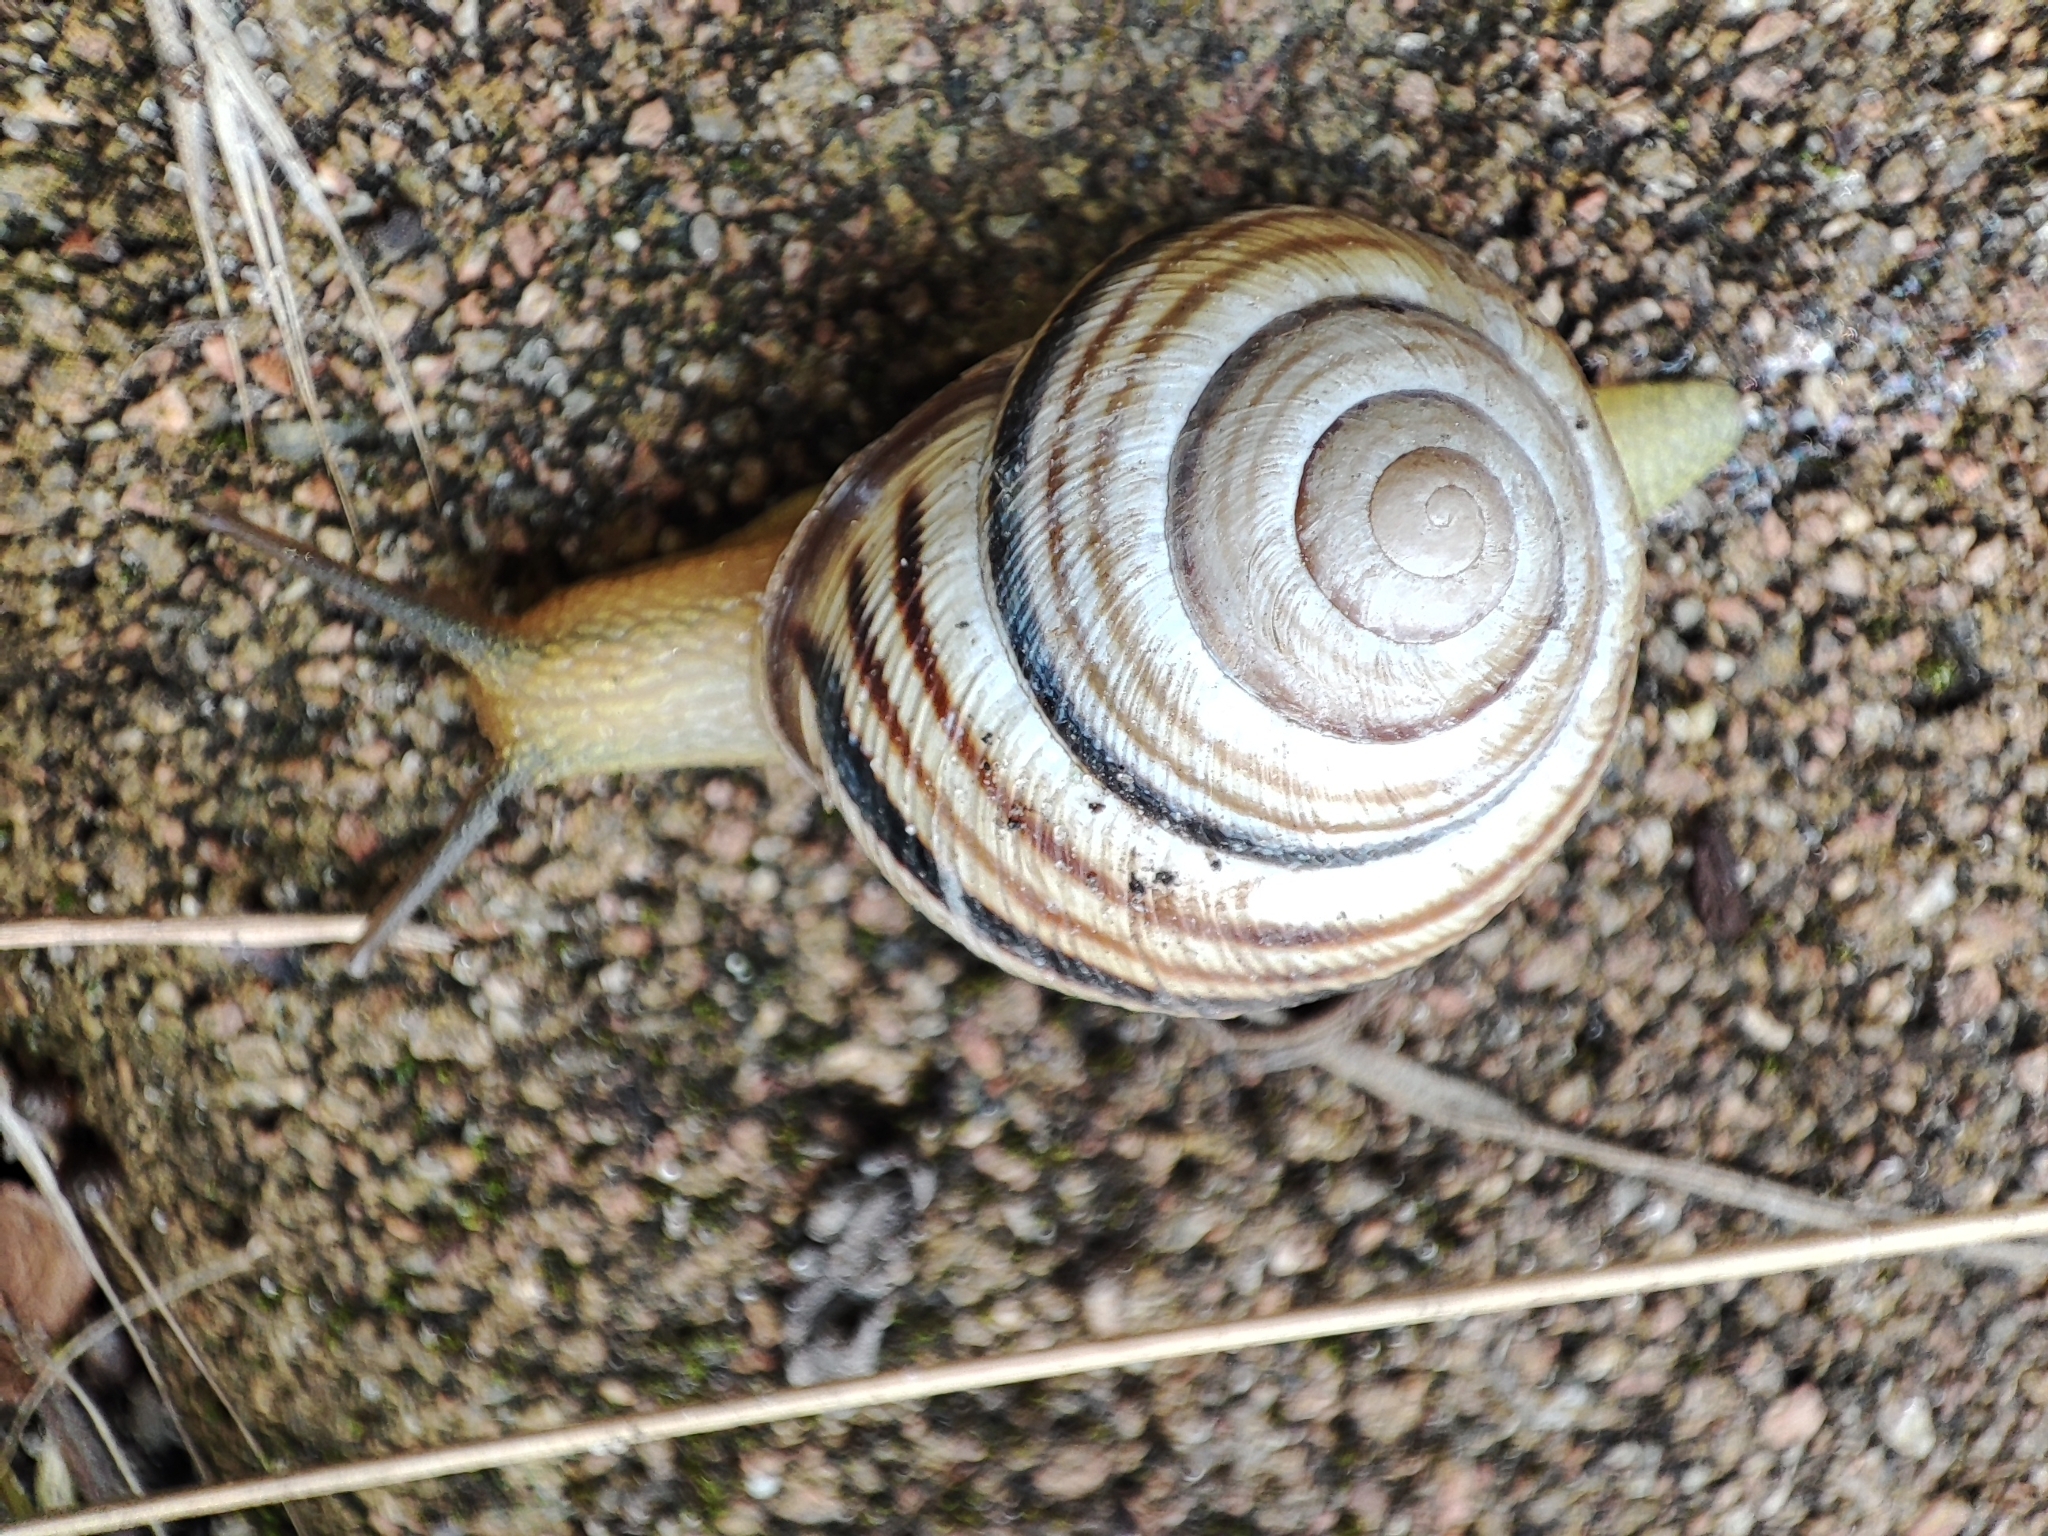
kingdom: Animalia
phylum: Mollusca
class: Gastropoda
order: Stylommatophora
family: Helicidae
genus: Caucasotachea
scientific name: Caucasotachea vindobonensis
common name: European helicid land snail
